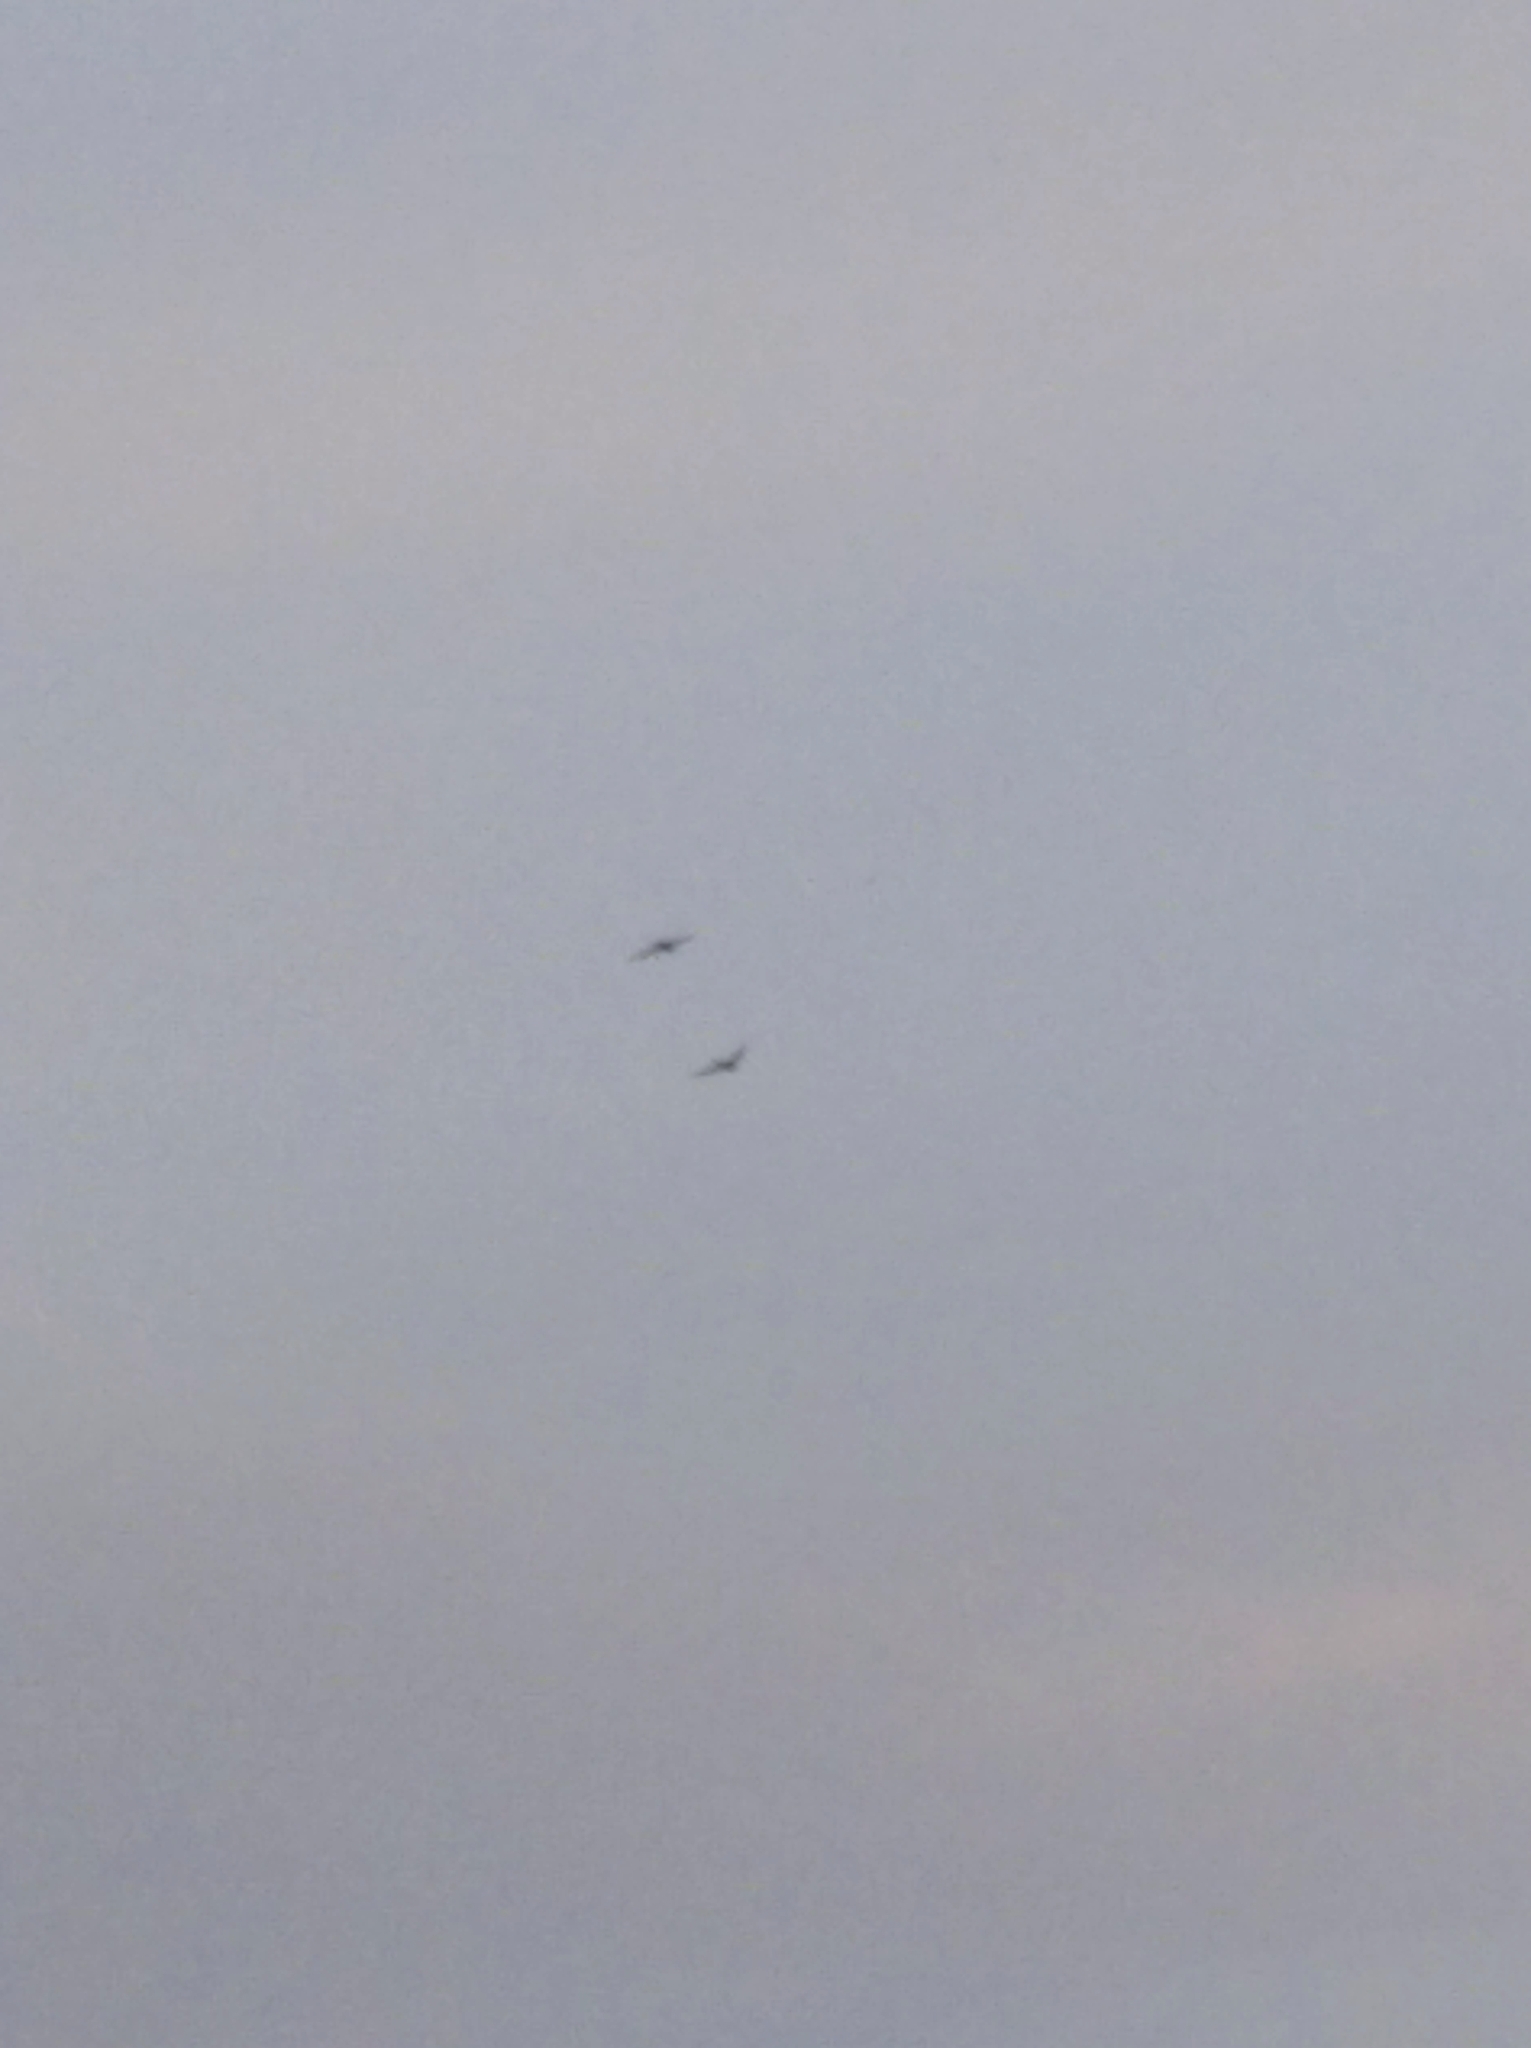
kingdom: Animalia
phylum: Chordata
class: Aves
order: Apodiformes
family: Apodidae
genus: Apus
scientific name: Apus apus
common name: Common swift
